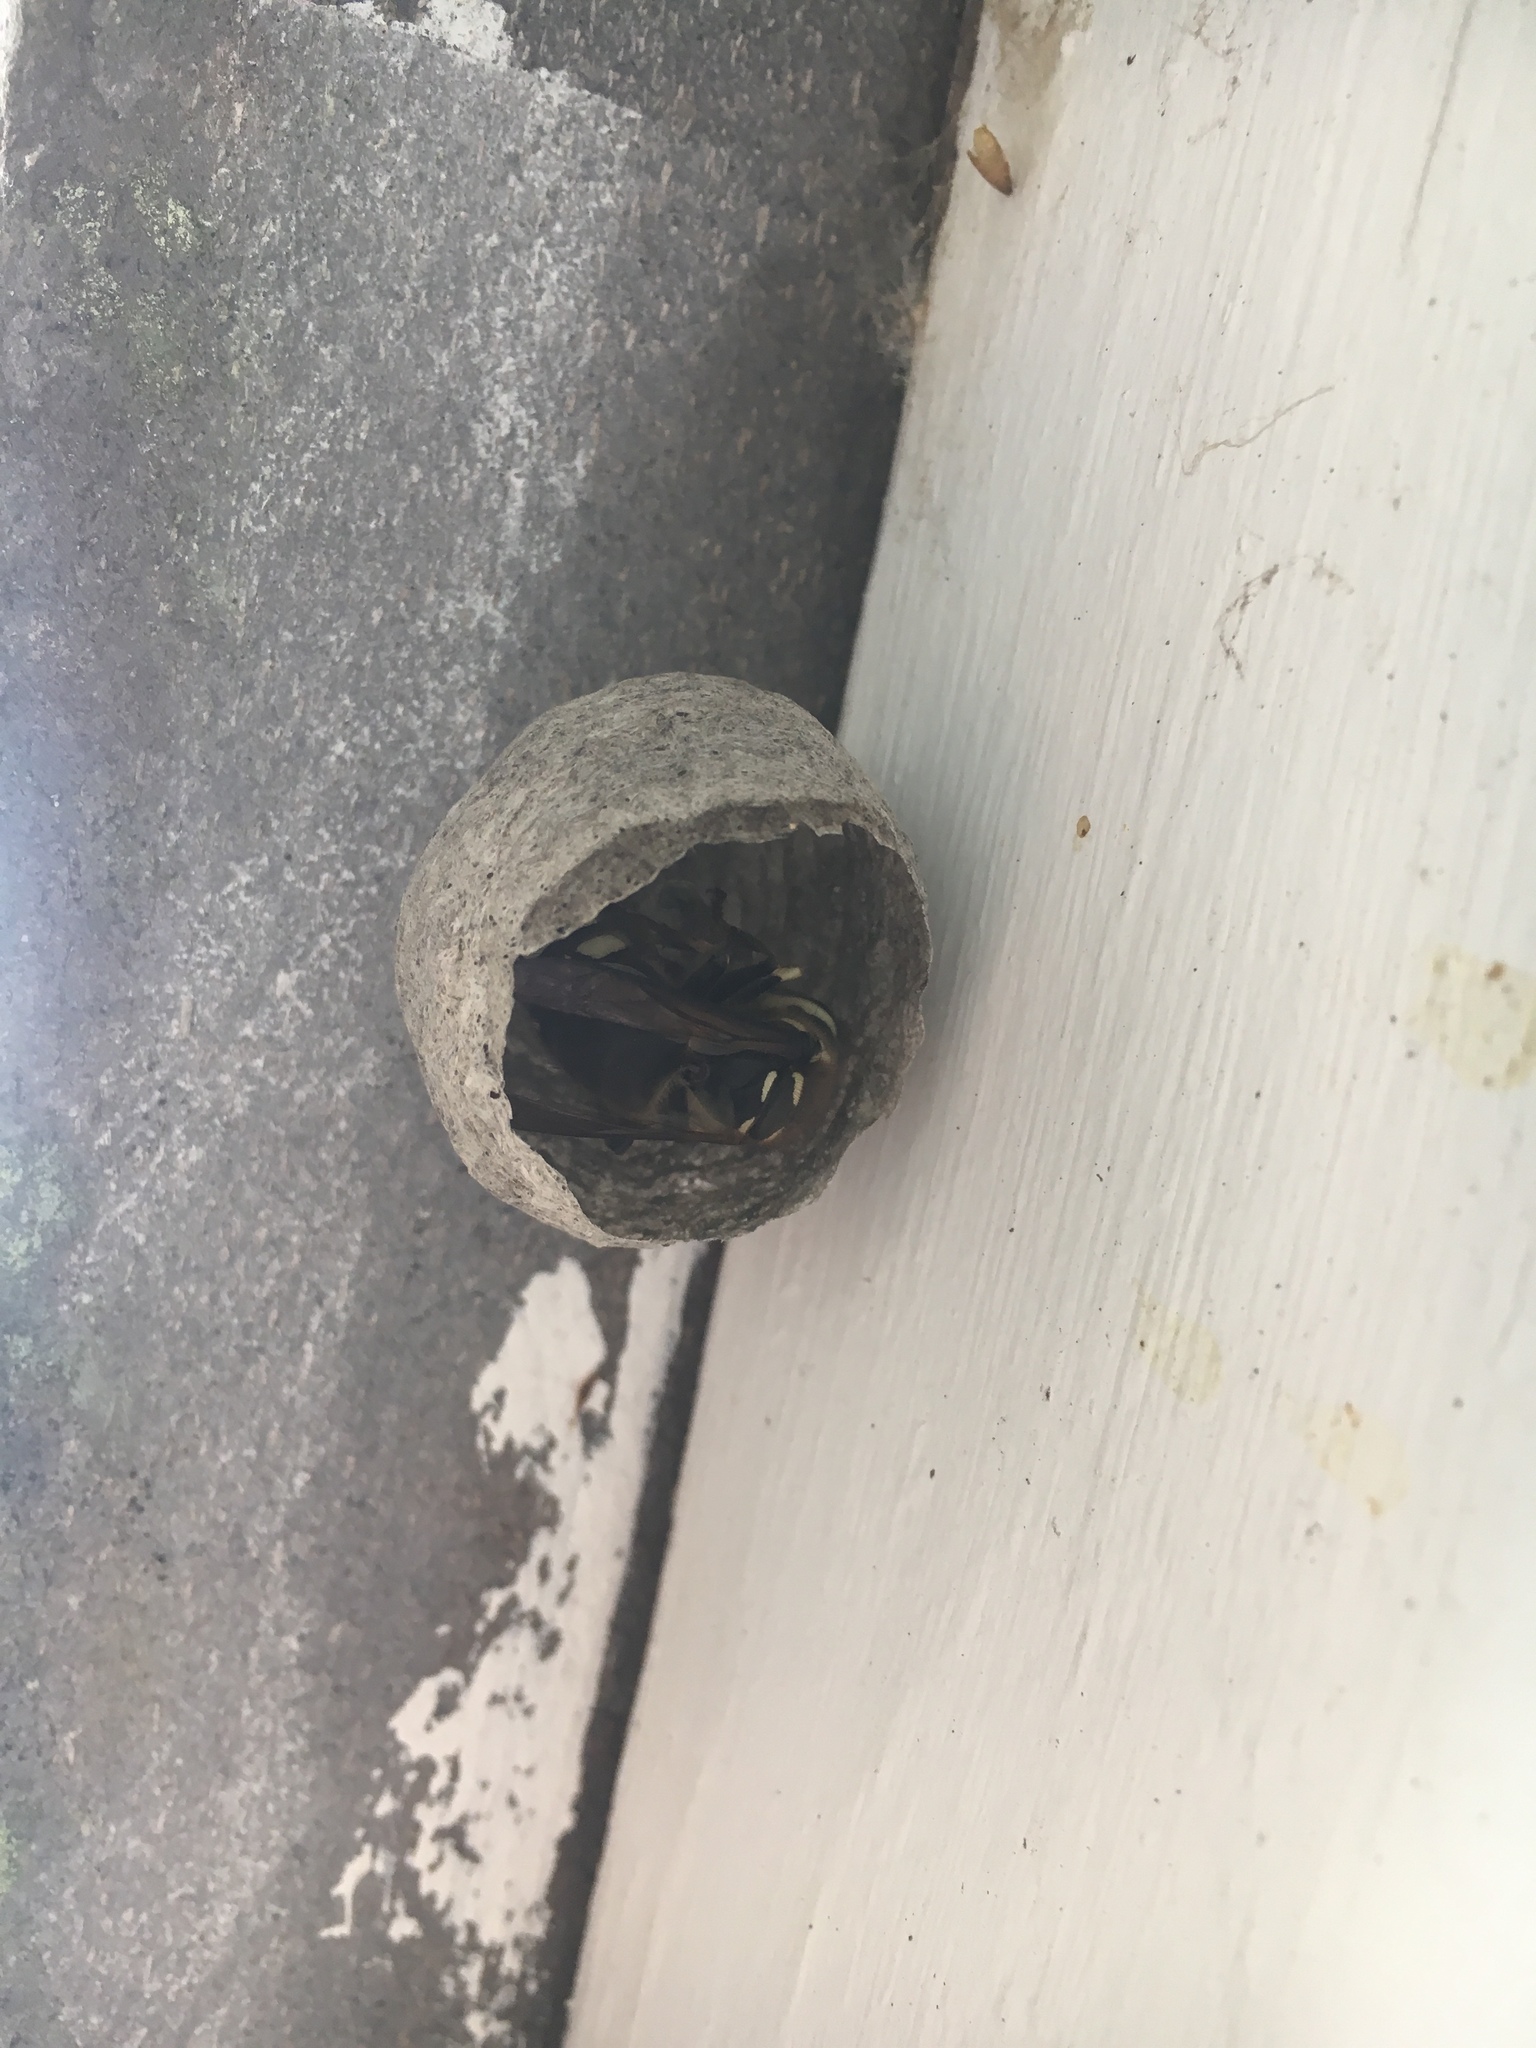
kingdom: Animalia
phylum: Arthropoda
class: Insecta
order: Hymenoptera
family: Vespidae
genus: Dolichovespula
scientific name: Dolichovespula maculata
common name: Bald-faced hornet
